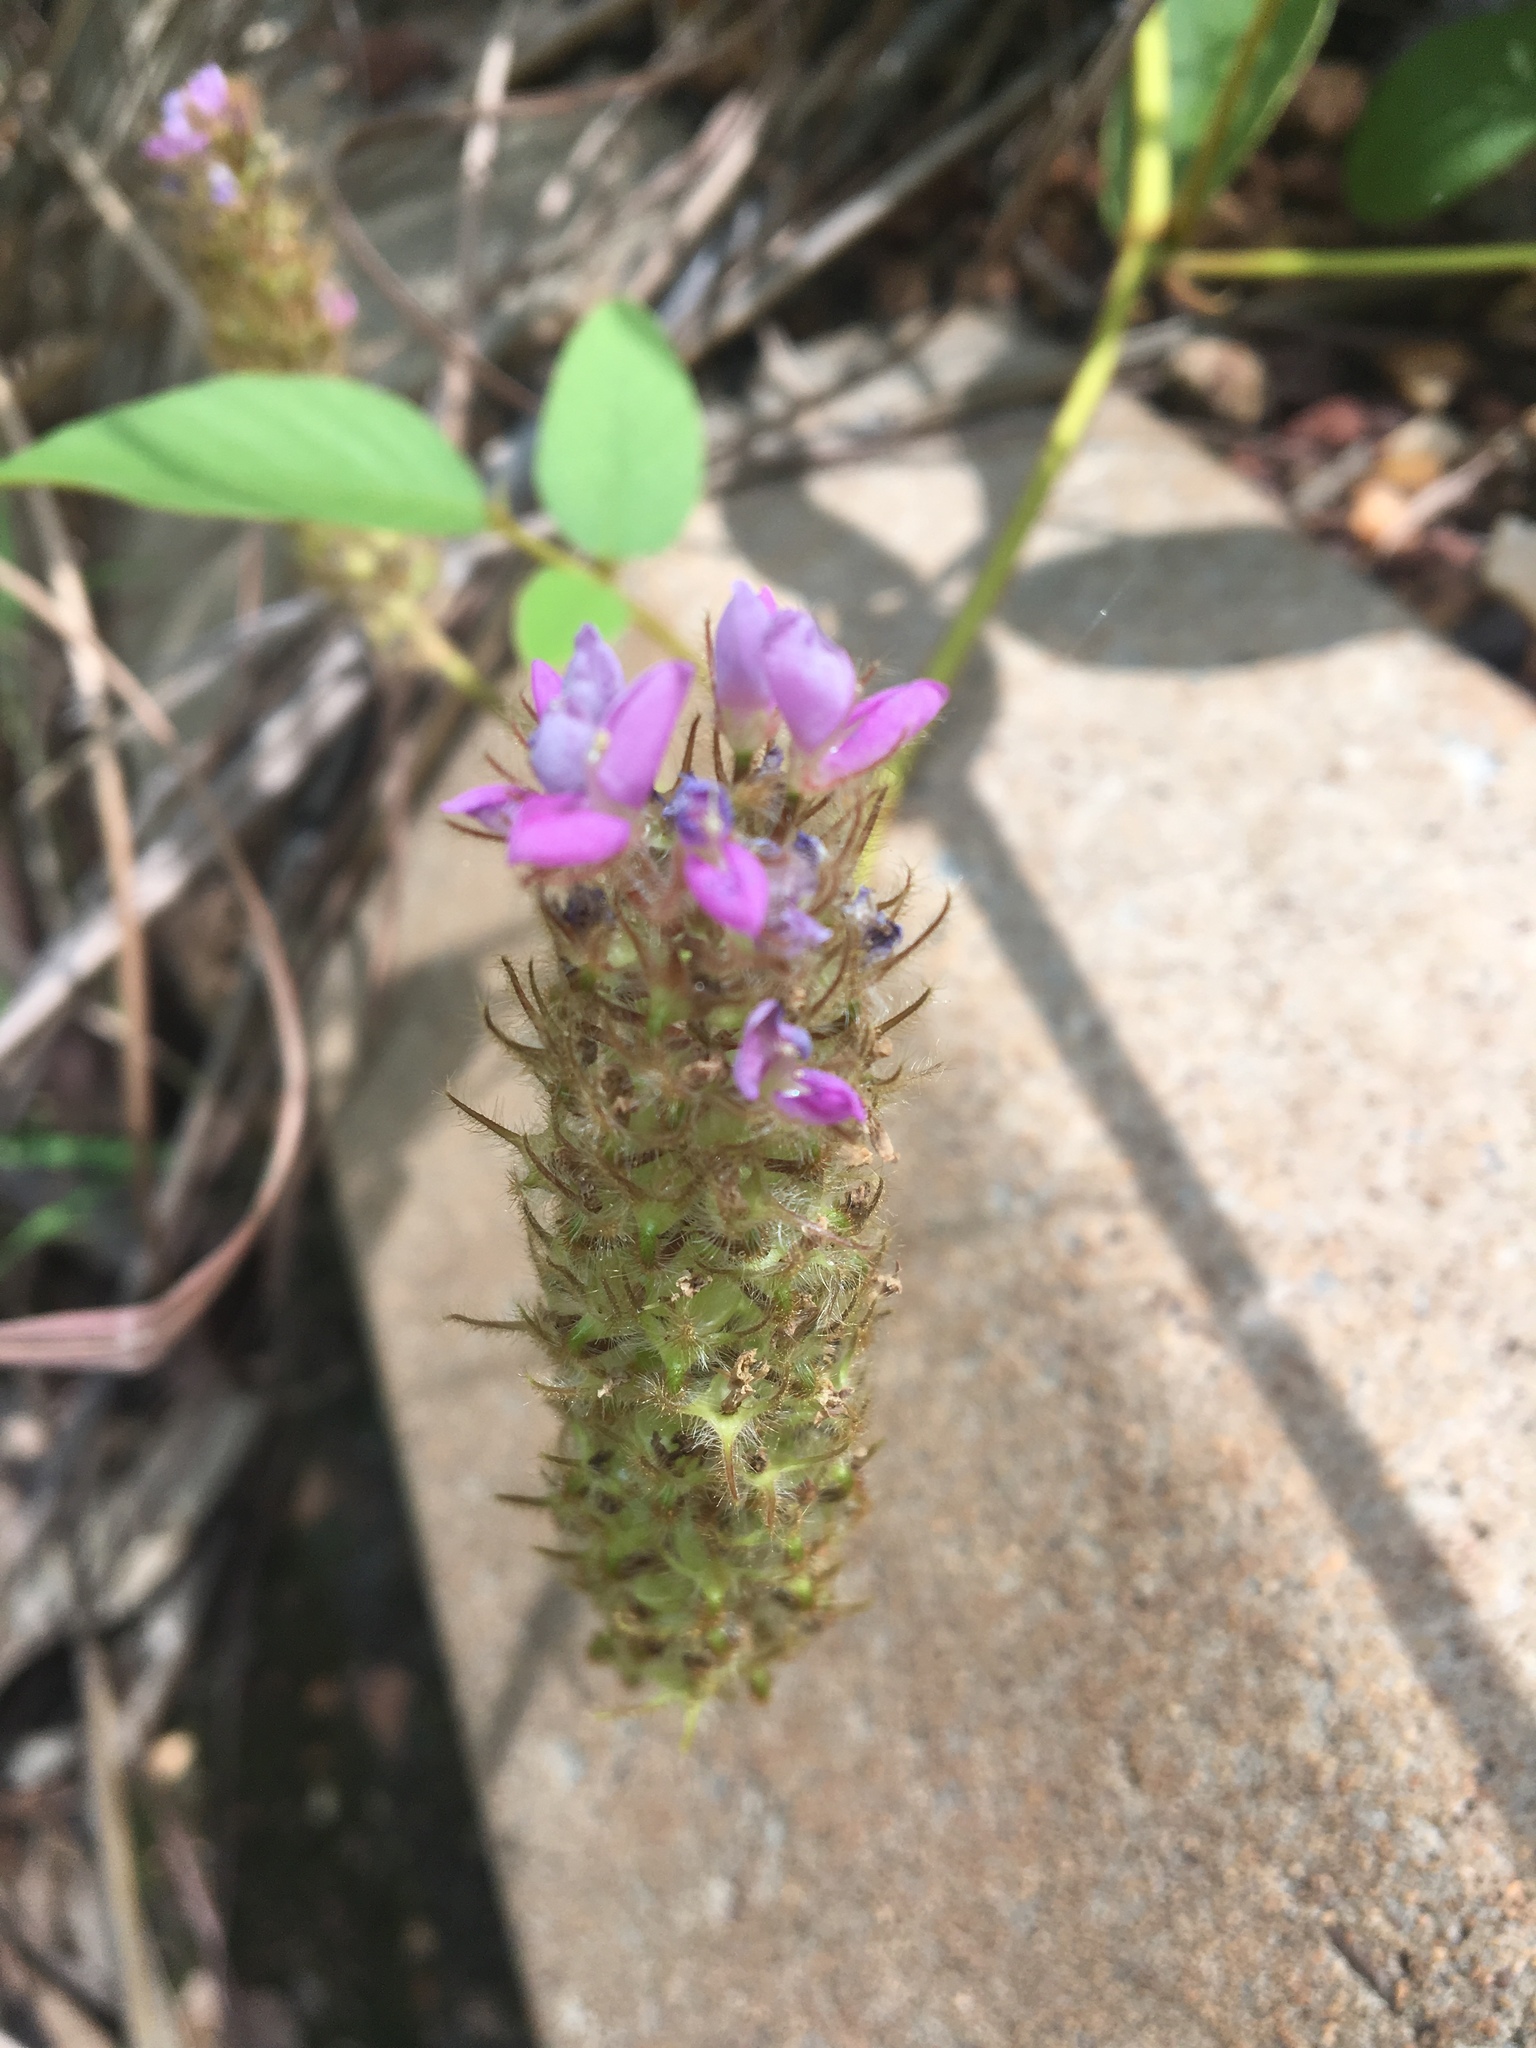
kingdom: Plantae
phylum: Tracheophyta
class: Magnoliopsida
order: Fabales
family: Fabaceae
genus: Uraria
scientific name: Uraria lagopodioides
